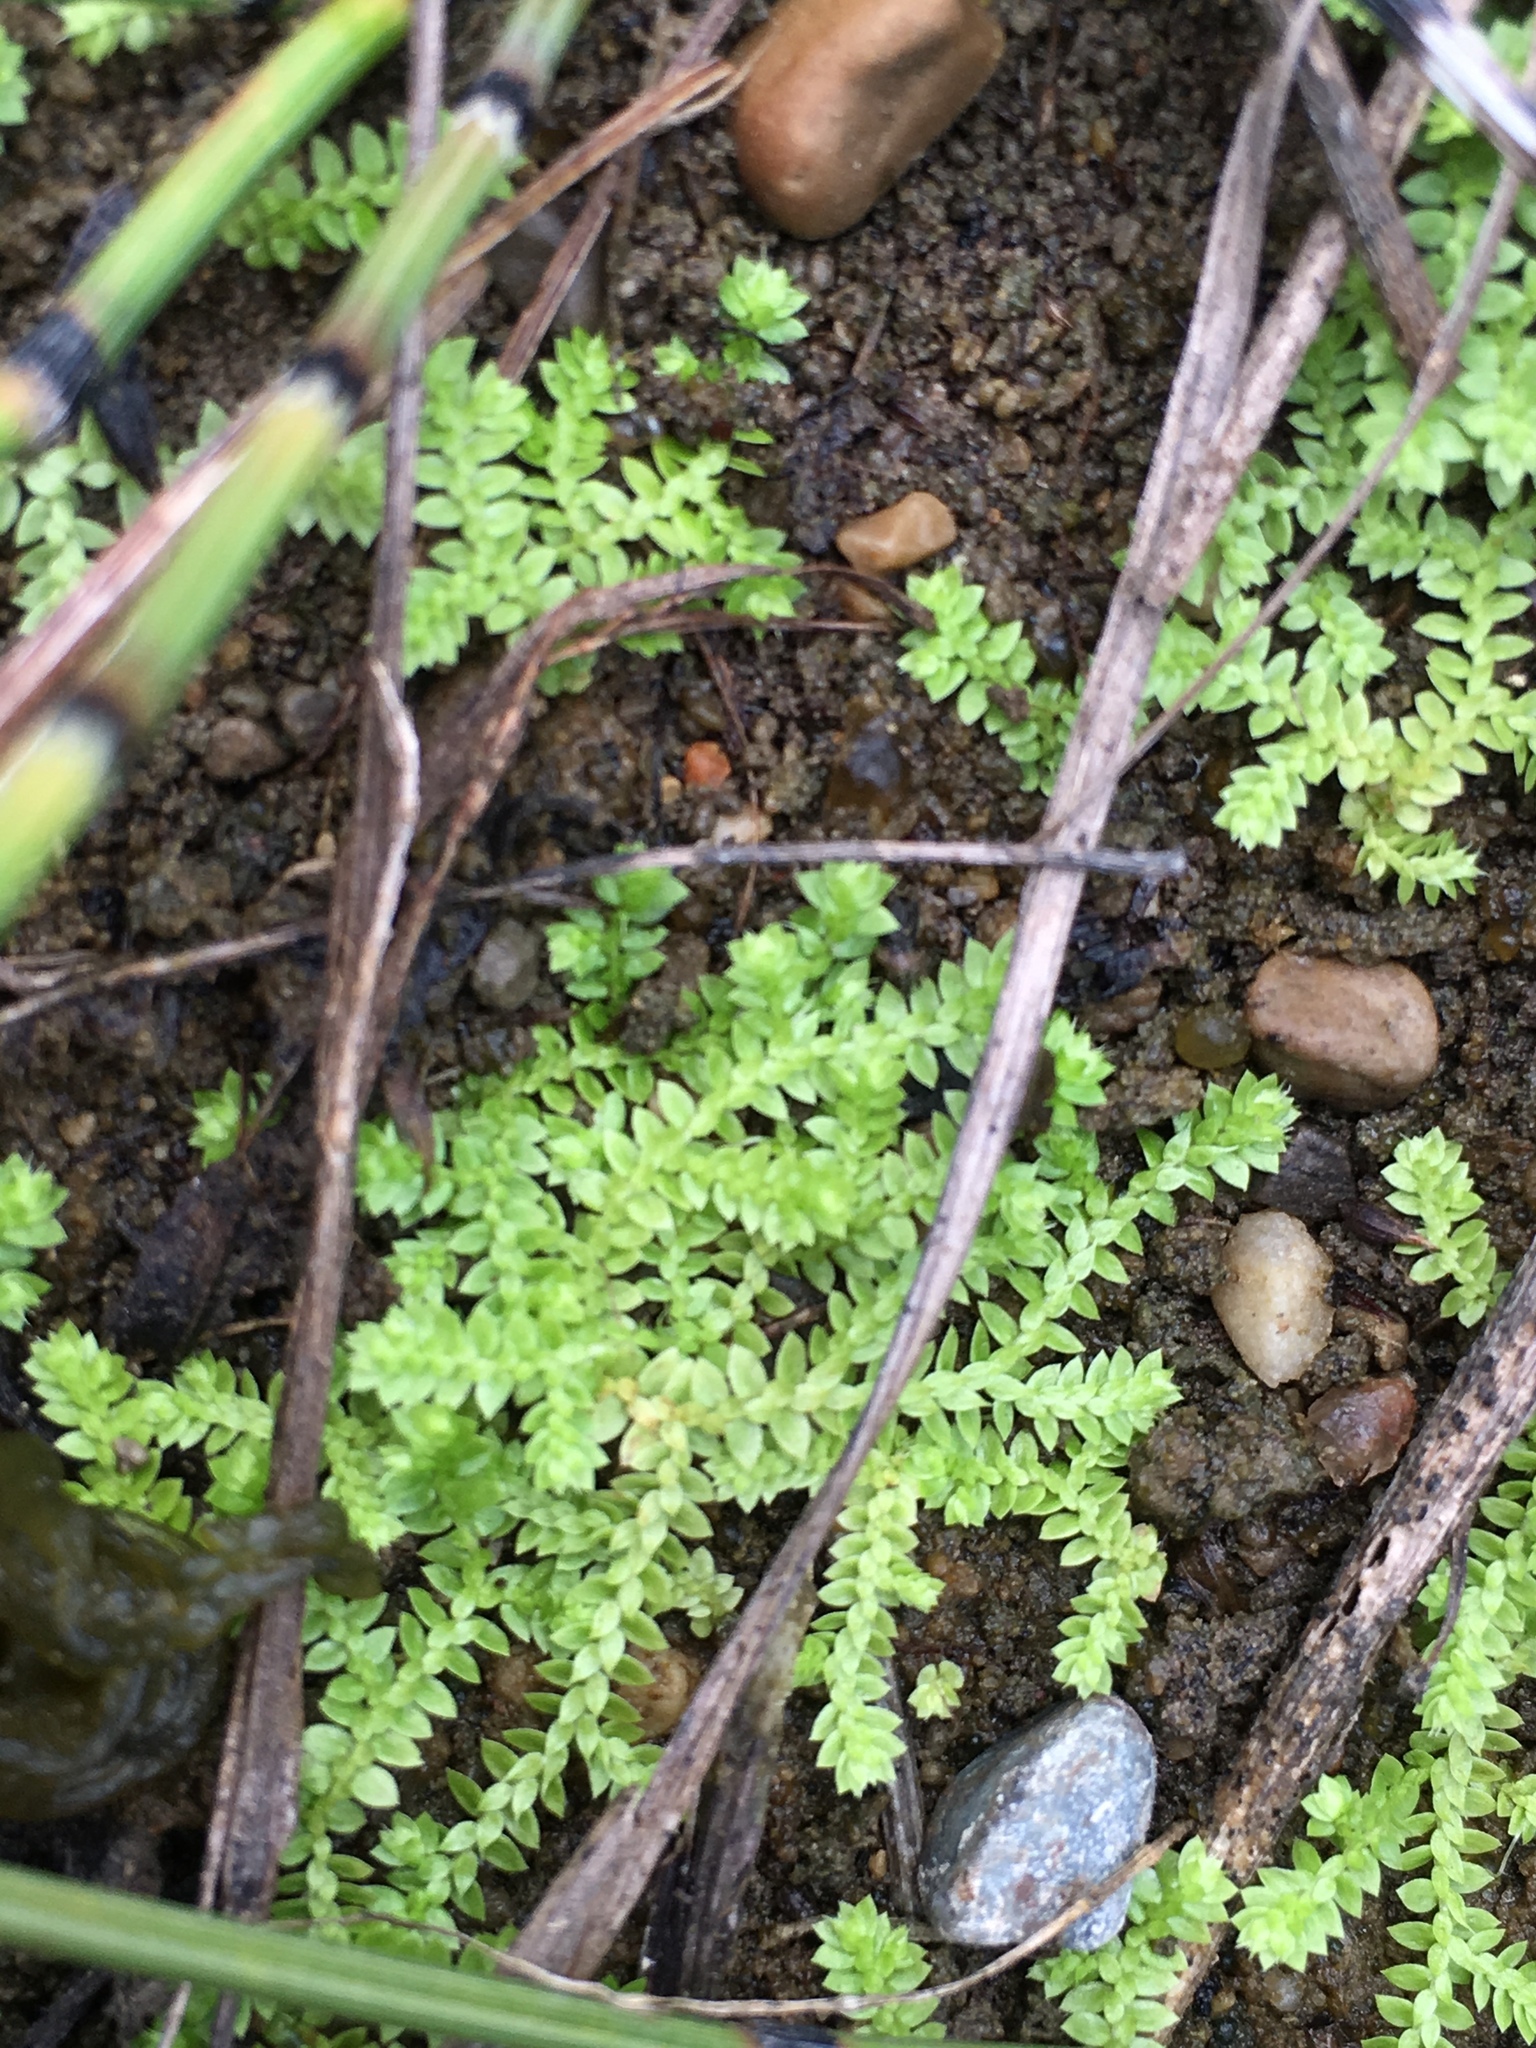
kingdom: Plantae
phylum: Tracheophyta
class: Lycopodiopsida
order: Selaginellales
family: Selaginellaceae
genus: Selaginella
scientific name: Selaginella eclipes
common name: Buck's meadow spikemoss
